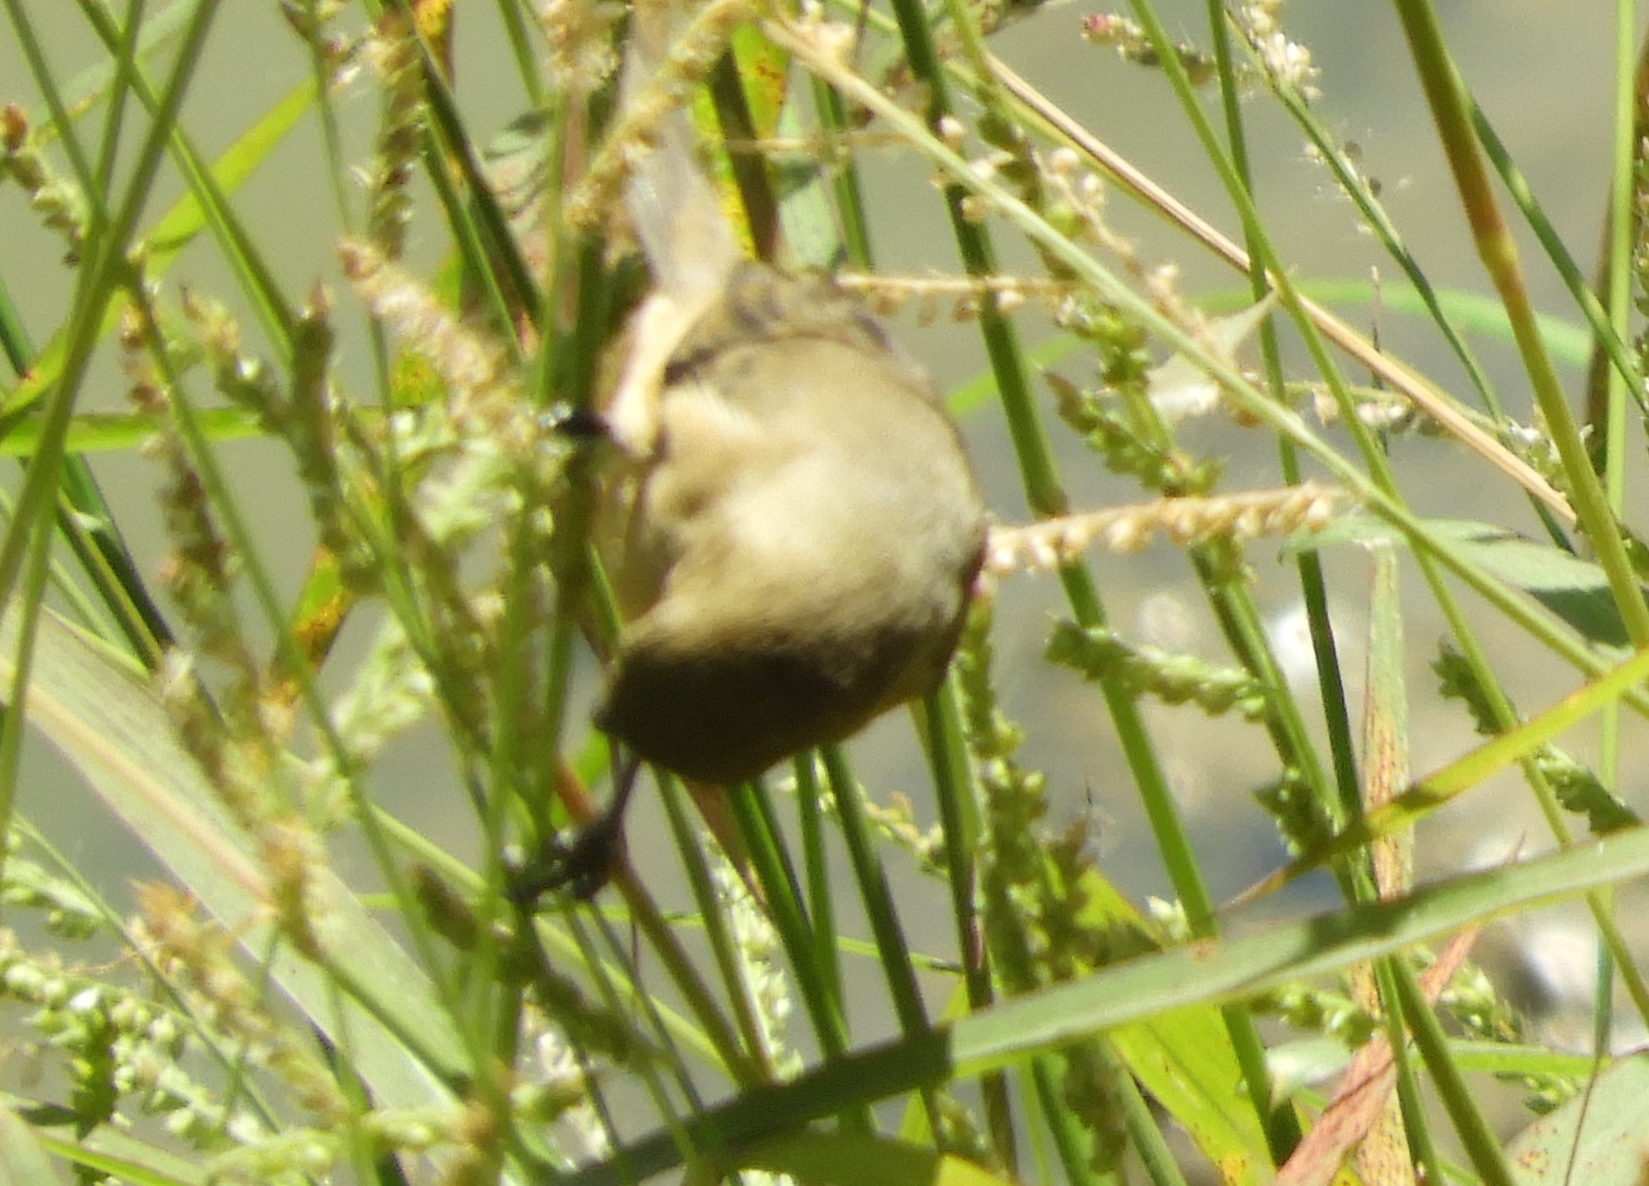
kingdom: Animalia
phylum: Chordata
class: Aves
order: Passeriformes
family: Thraupidae
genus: Sporophila
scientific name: Sporophila torqueola
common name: White-collared seedeater
